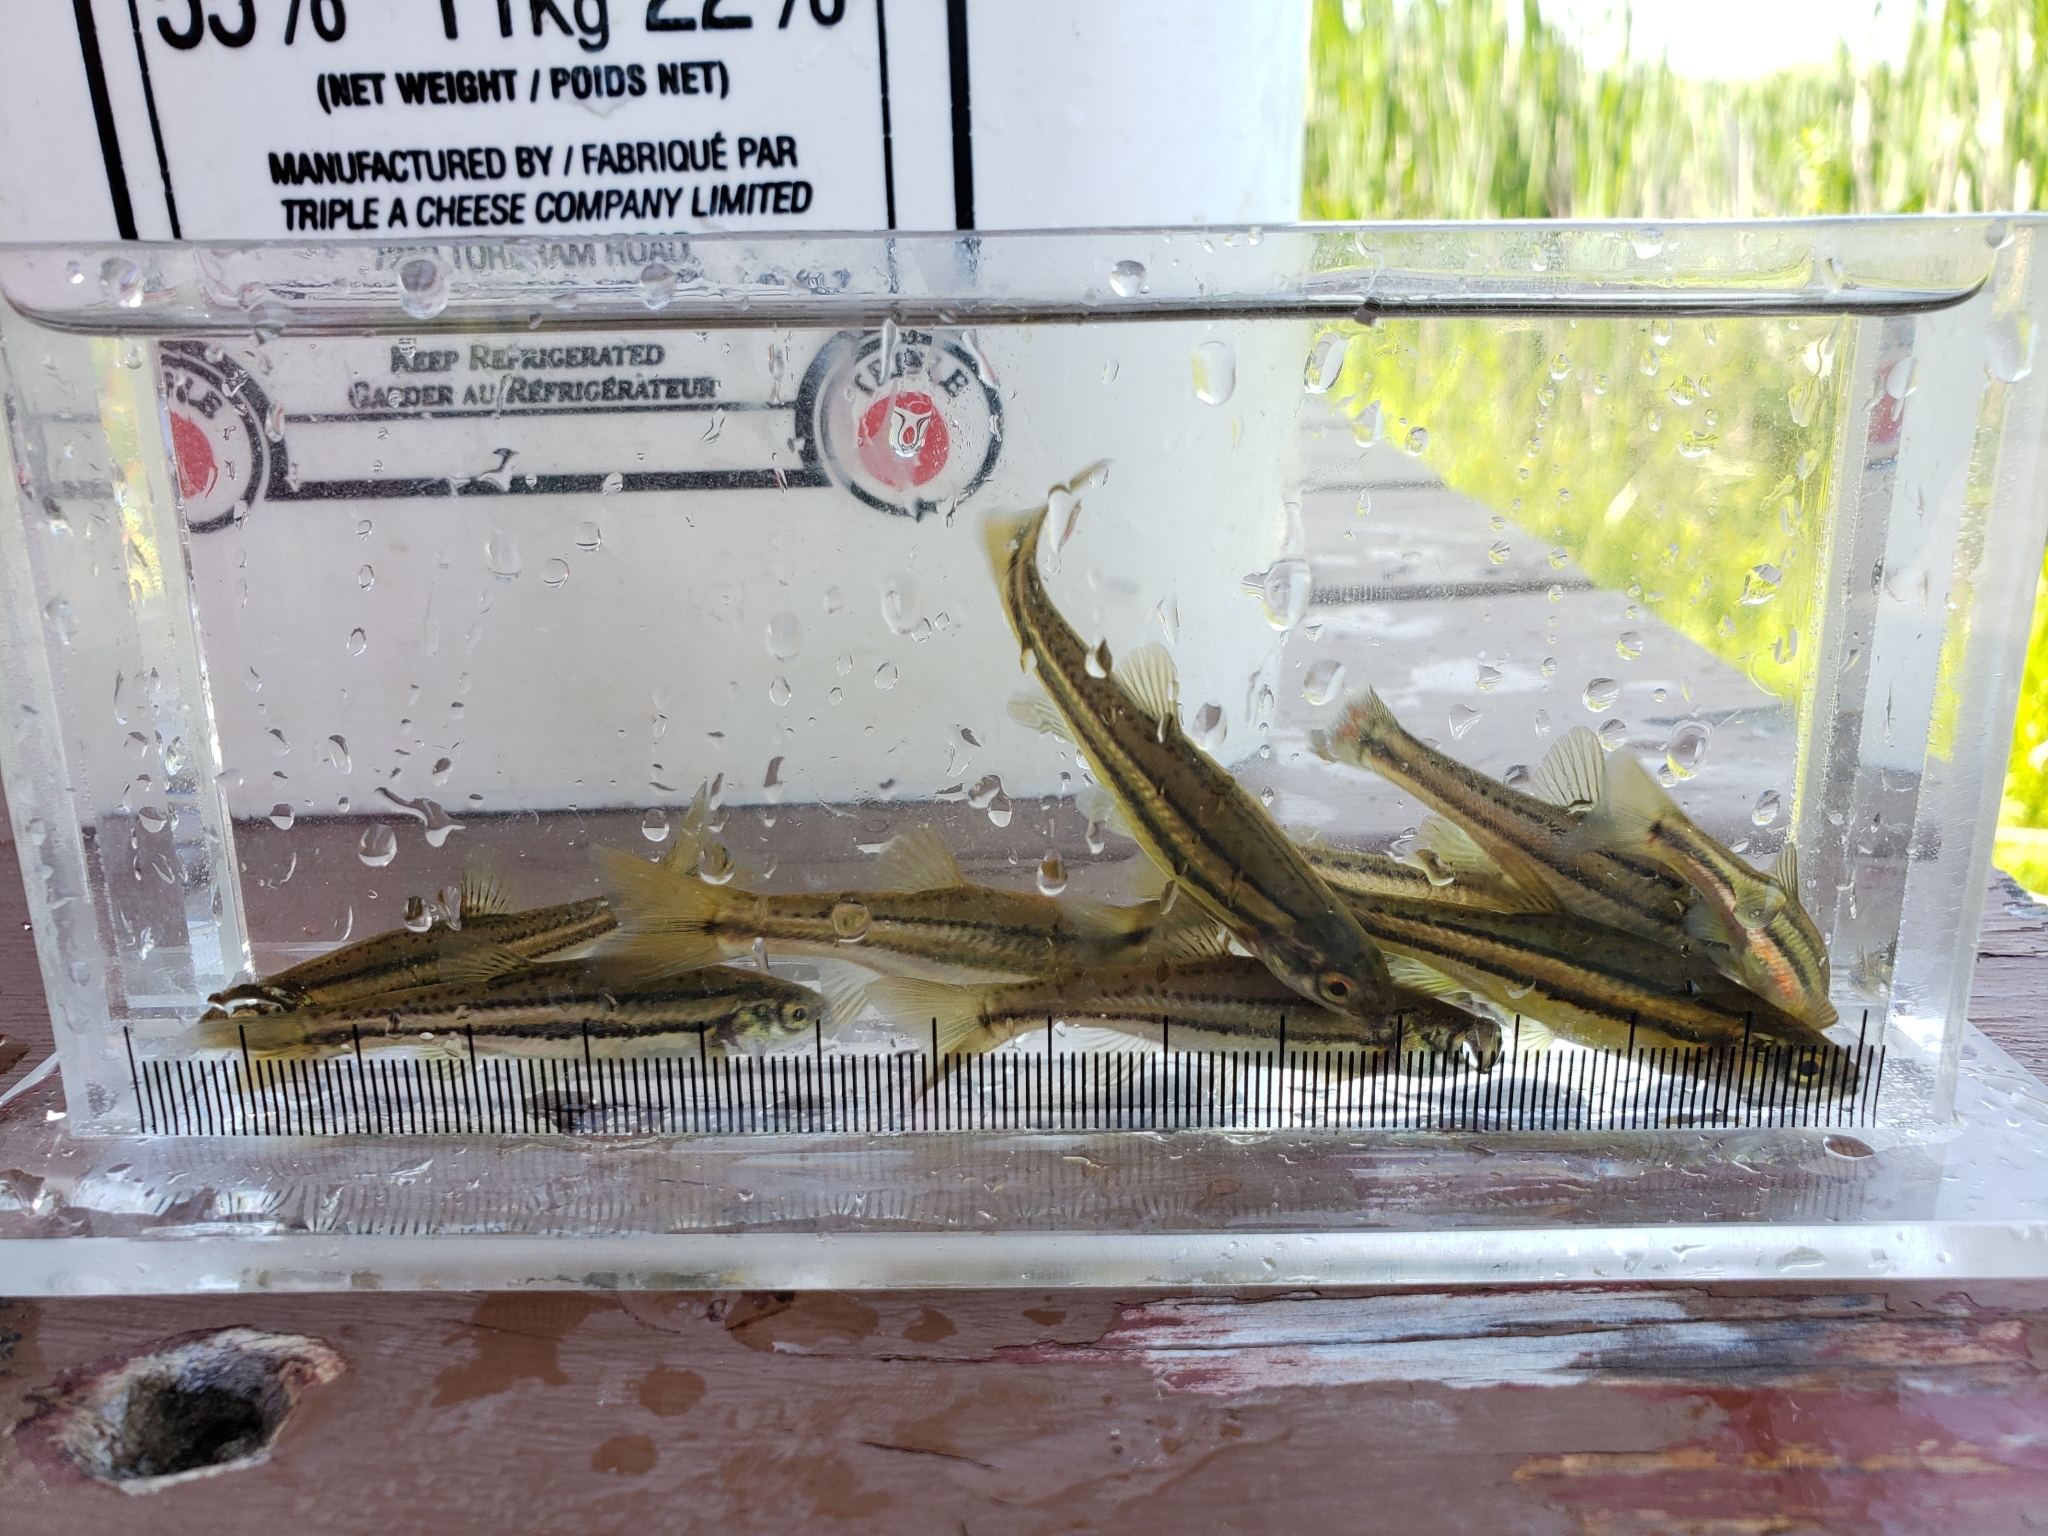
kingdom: Animalia
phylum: Chordata
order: Cypriniformes
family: Cyprinidae
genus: Chrosomus
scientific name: Chrosomus eos
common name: Northern redbelly dace
